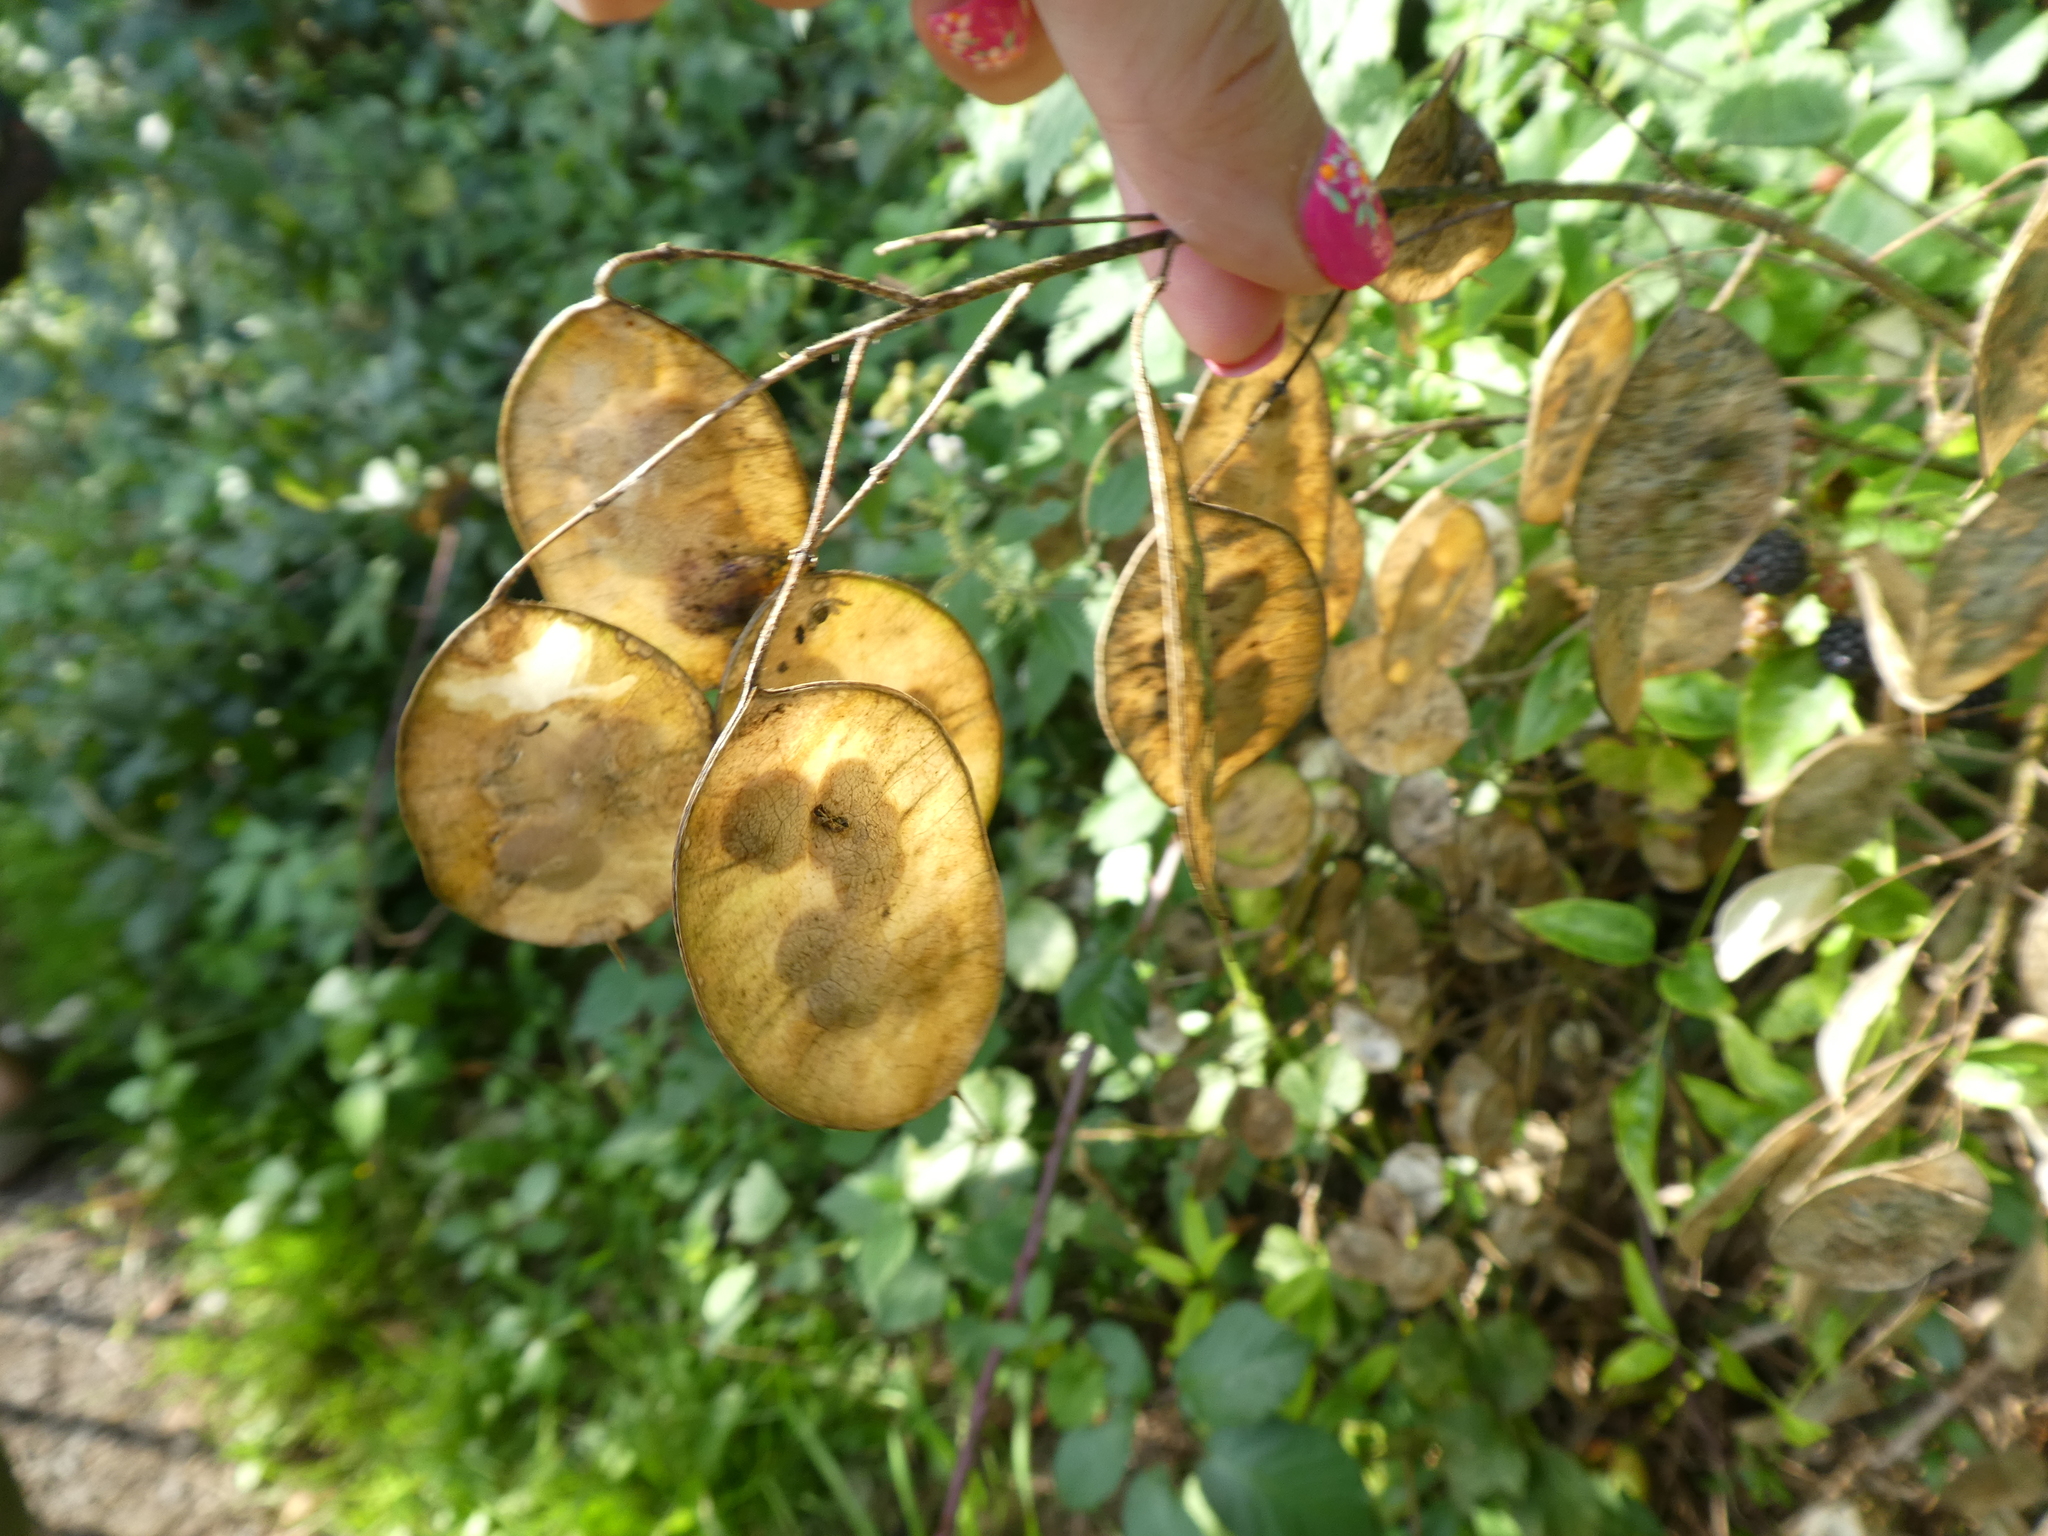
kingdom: Plantae
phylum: Tracheophyta
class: Magnoliopsida
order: Brassicales
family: Brassicaceae
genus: Lunaria
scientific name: Lunaria annua
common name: Honesty
